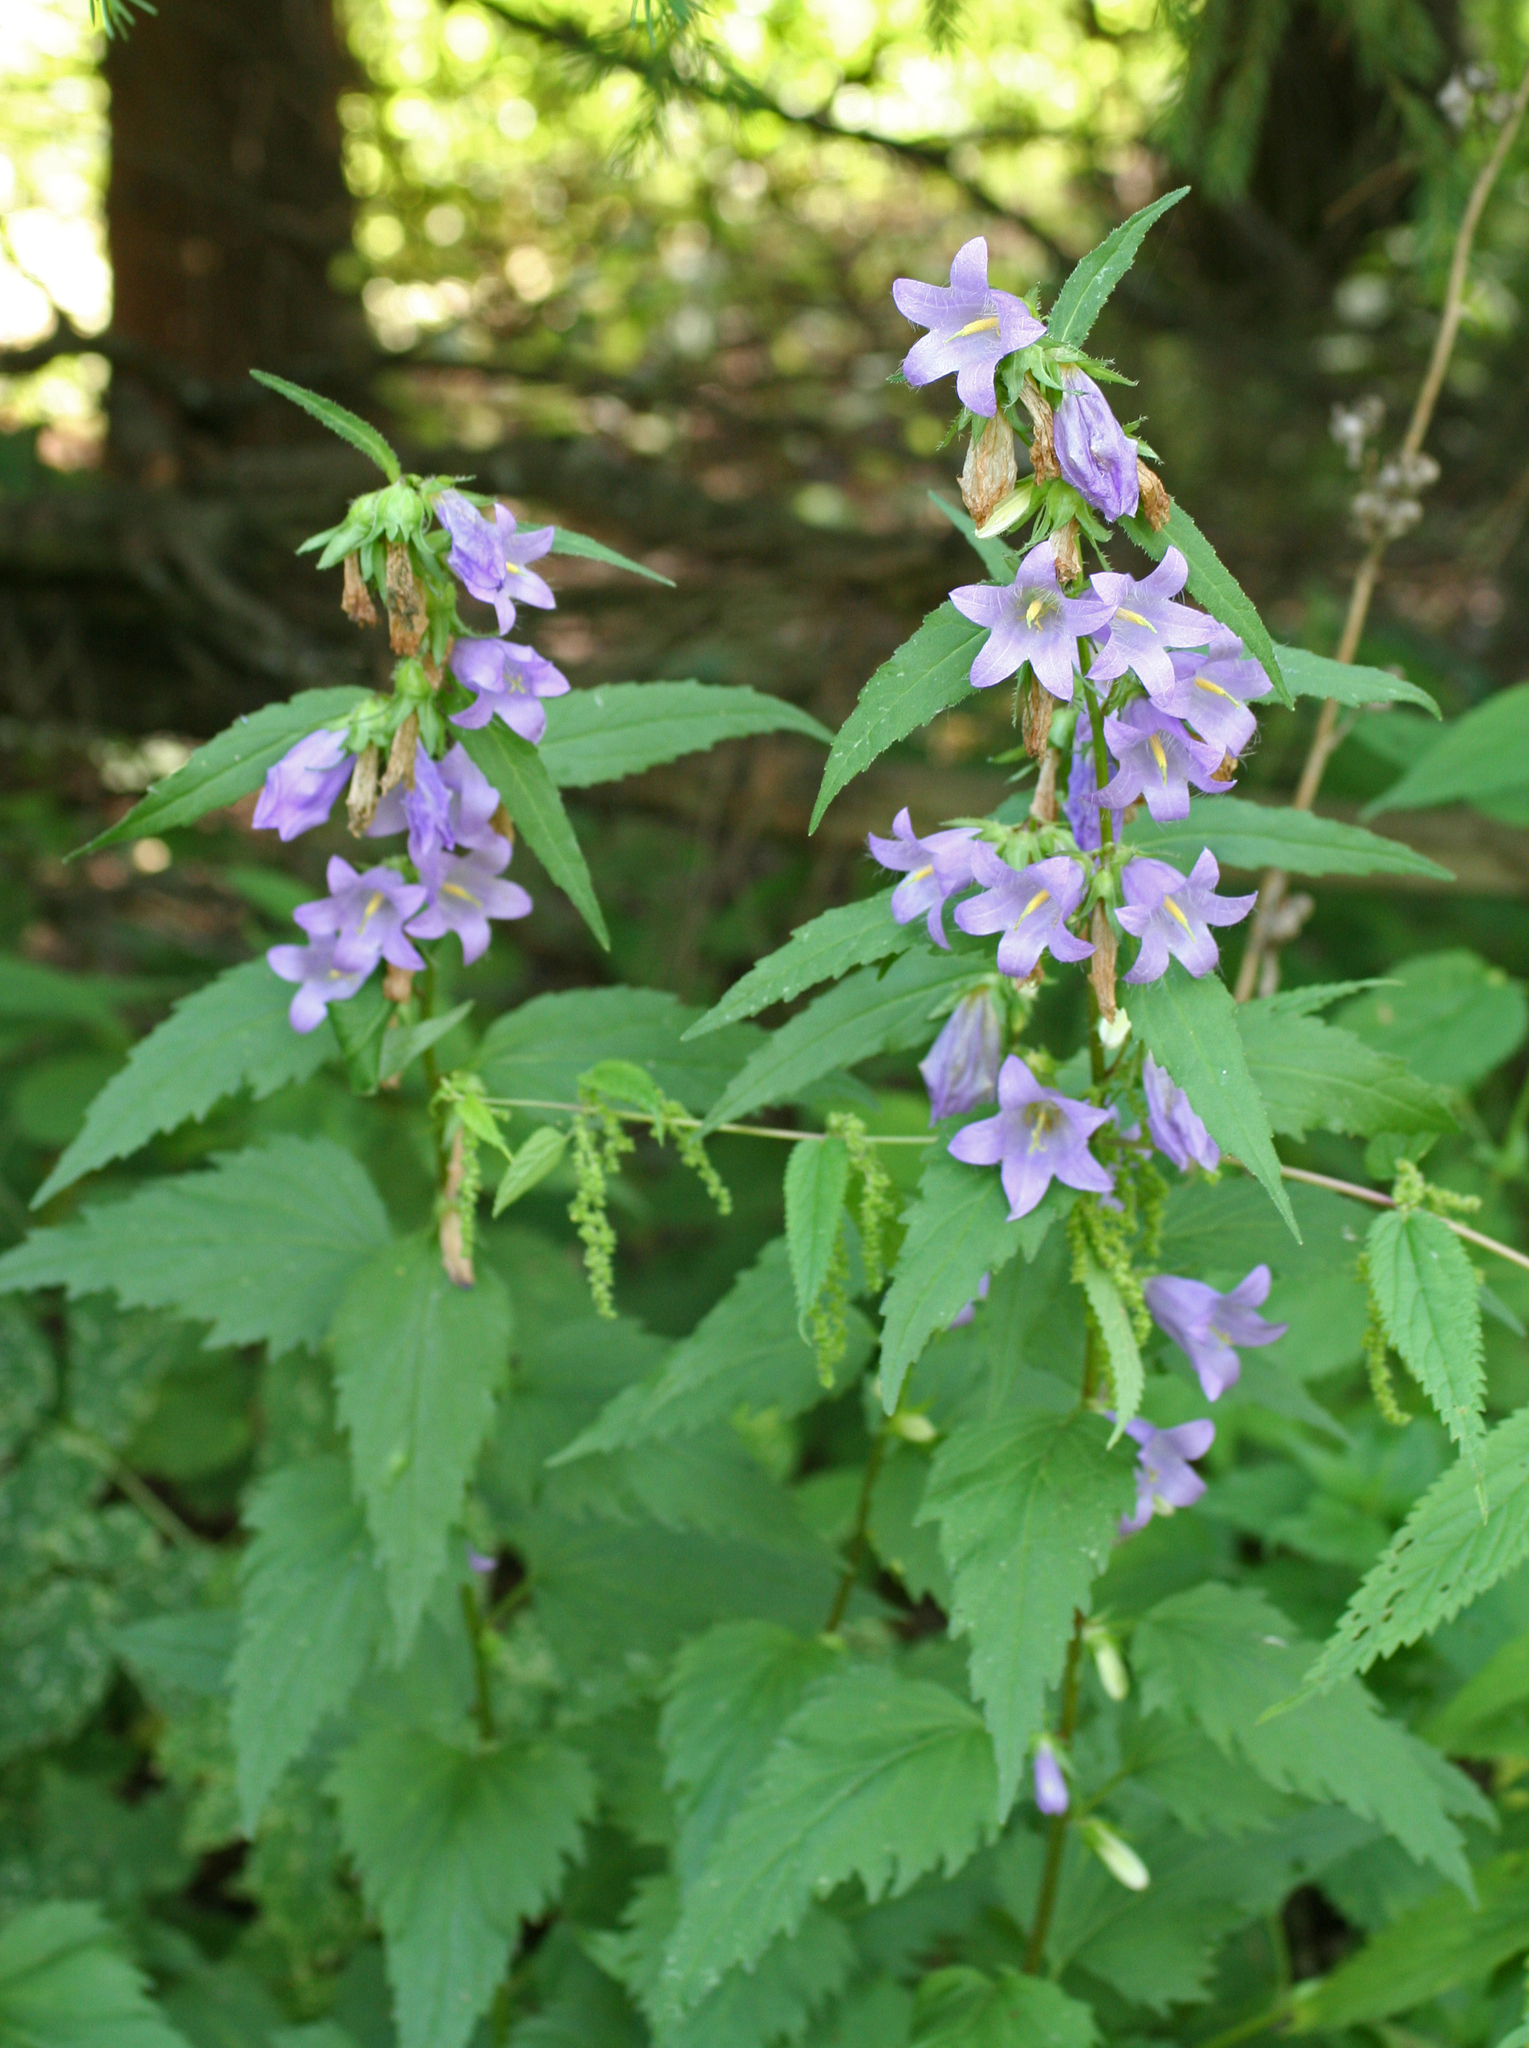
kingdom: Plantae
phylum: Tracheophyta
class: Magnoliopsida
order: Asterales
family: Campanulaceae
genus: Campanula
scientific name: Campanula trachelium
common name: Nettle-leaved bellflower
